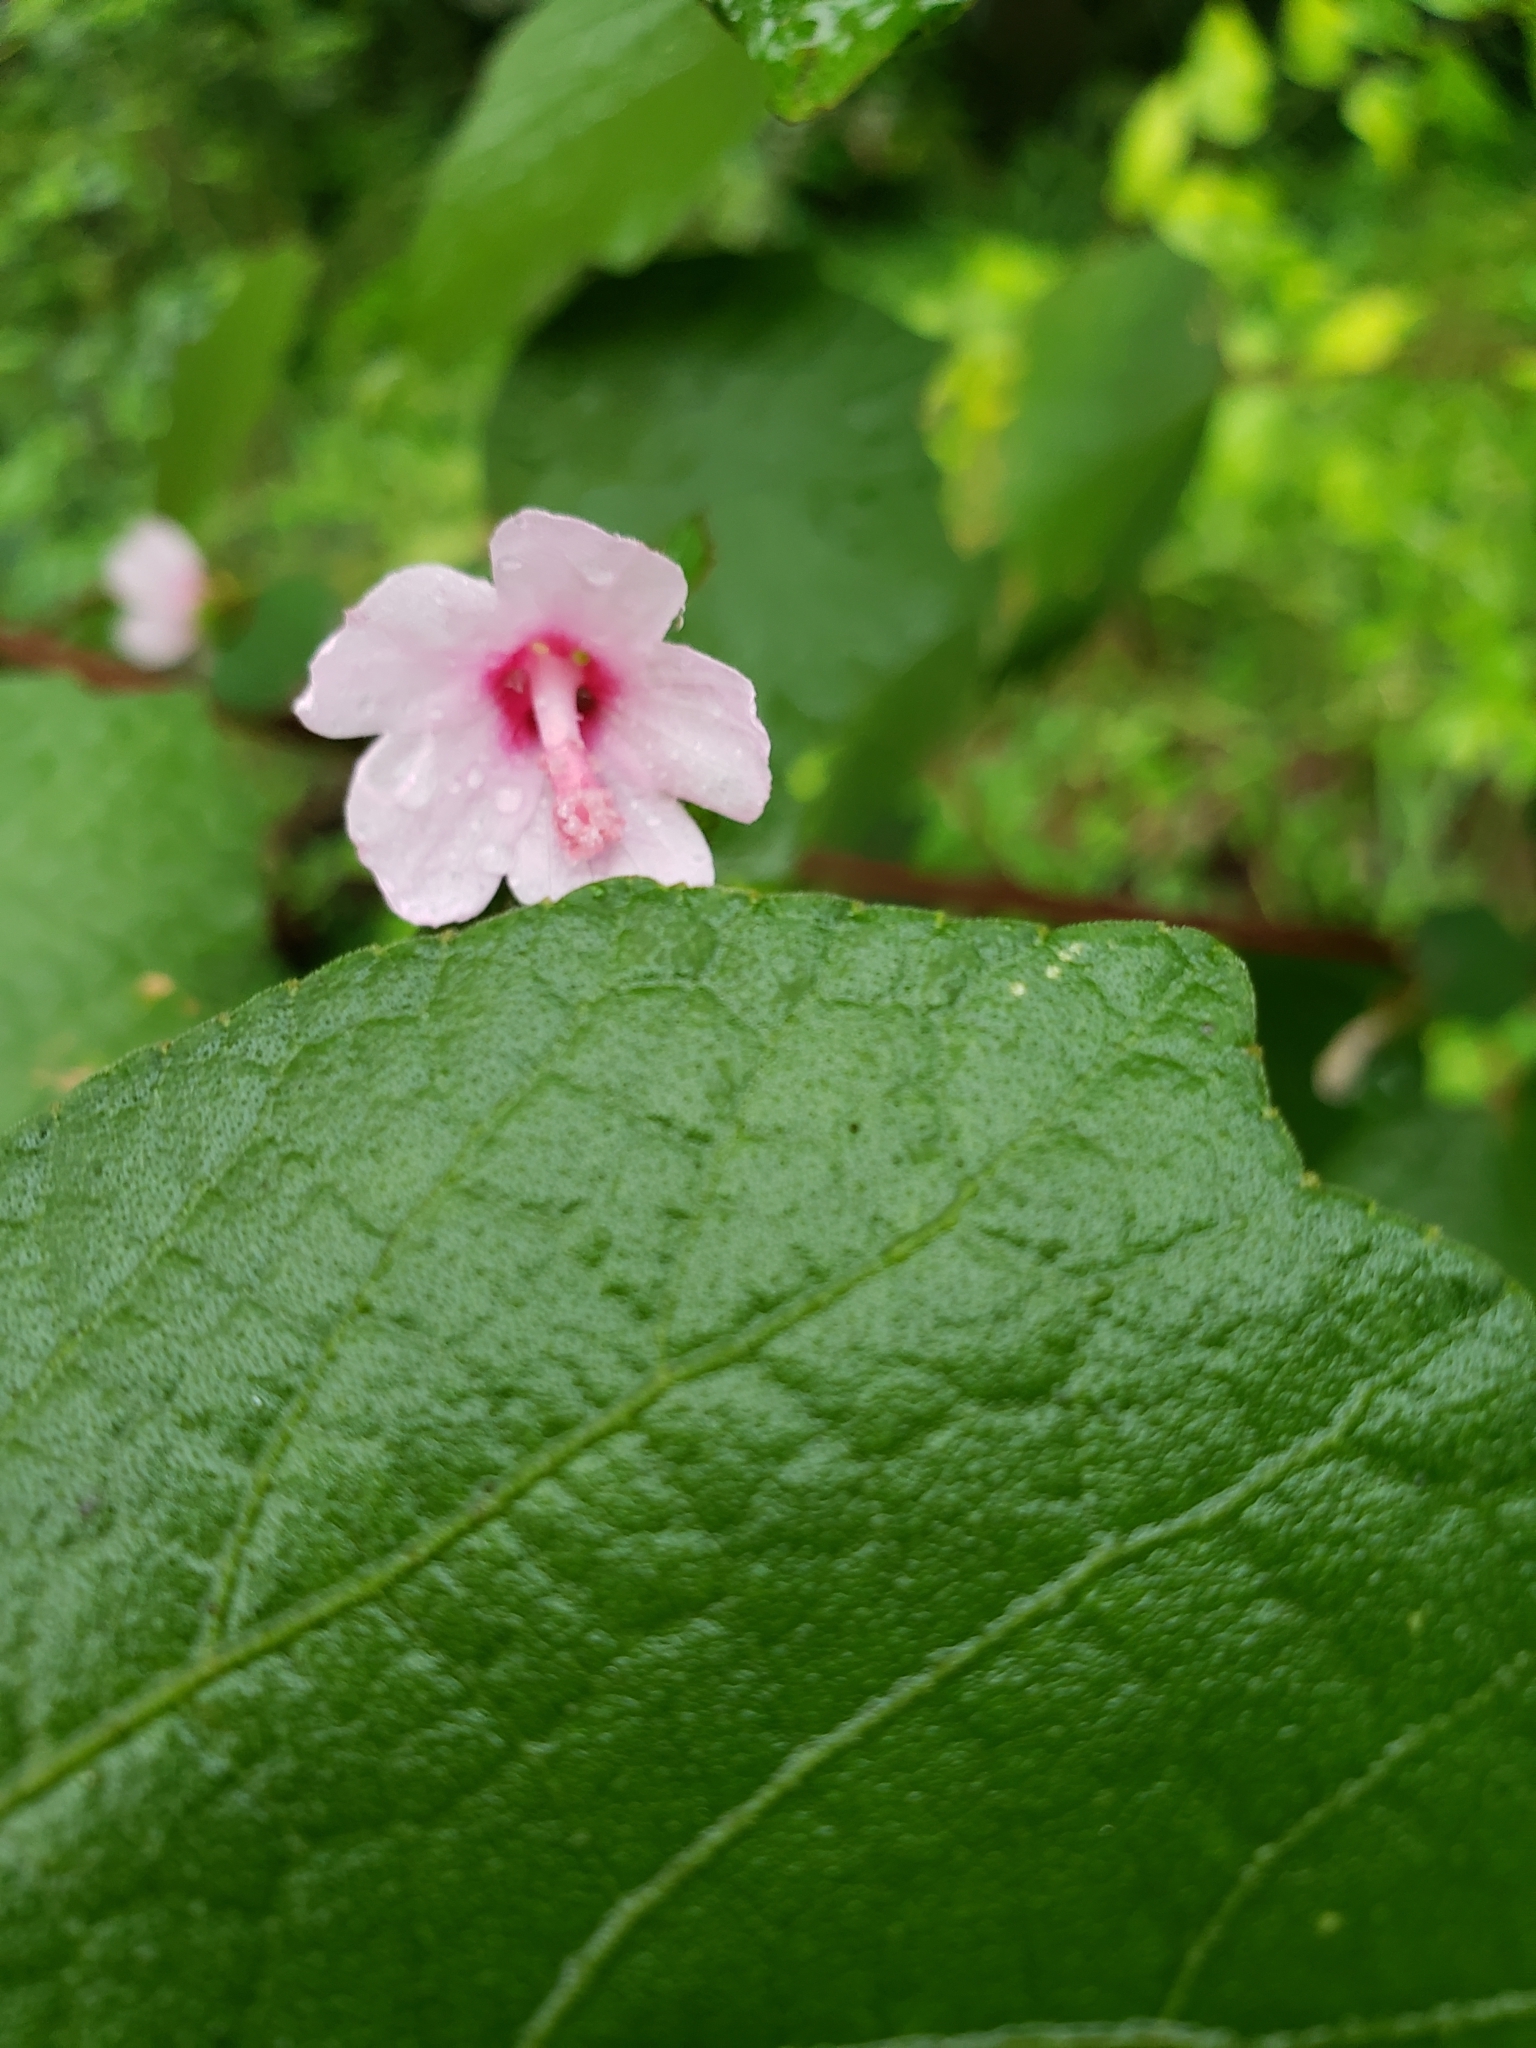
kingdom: Plantae
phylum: Tracheophyta
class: Magnoliopsida
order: Malvales
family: Malvaceae
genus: Urena
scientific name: Urena lobata
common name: Caesarweed
